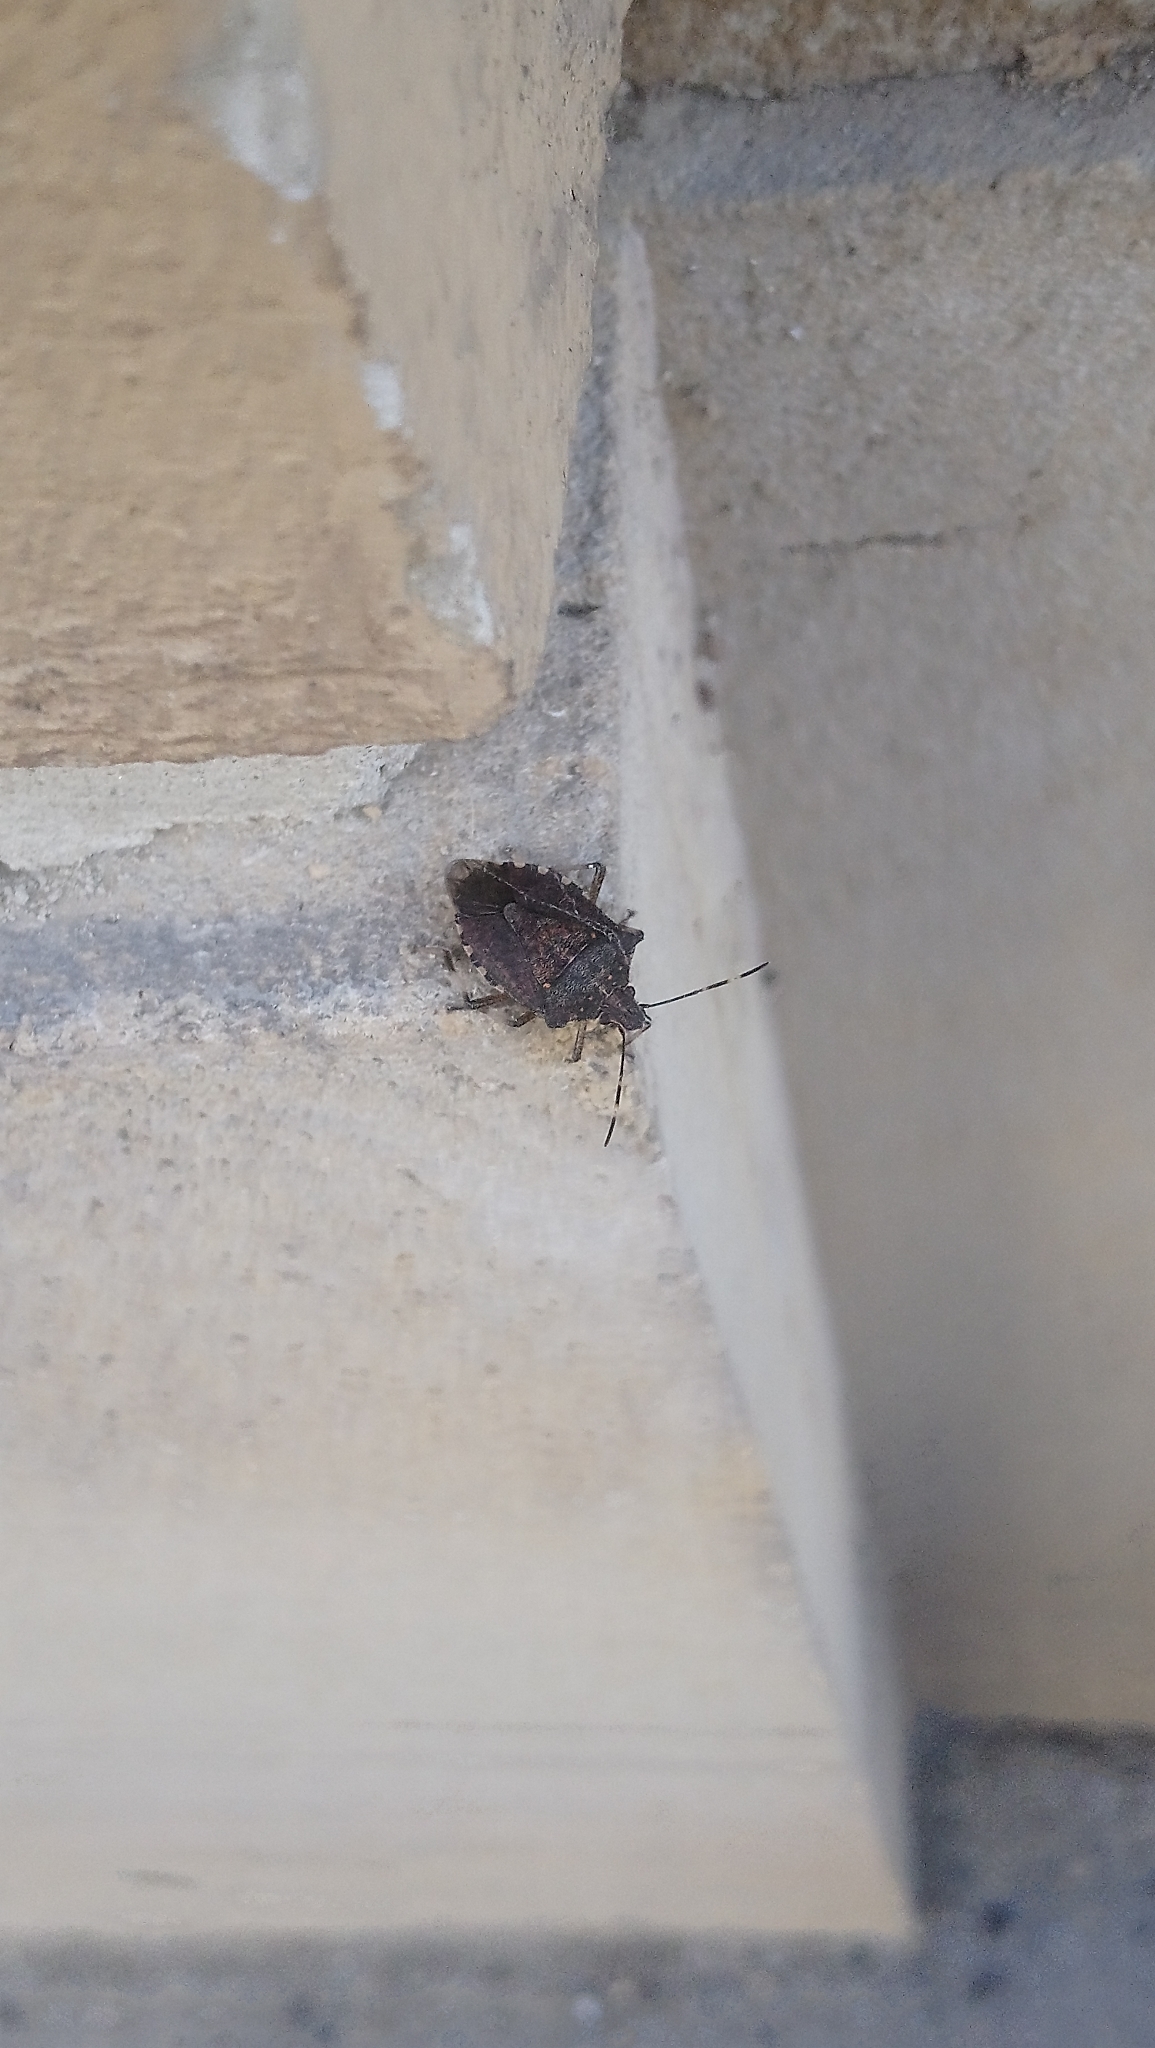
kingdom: Animalia
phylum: Arthropoda
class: Insecta
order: Hemiptera
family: Pentatomidae
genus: Halyomorpha
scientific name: Halyomorpha halys
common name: Brown marmorated stink bug
